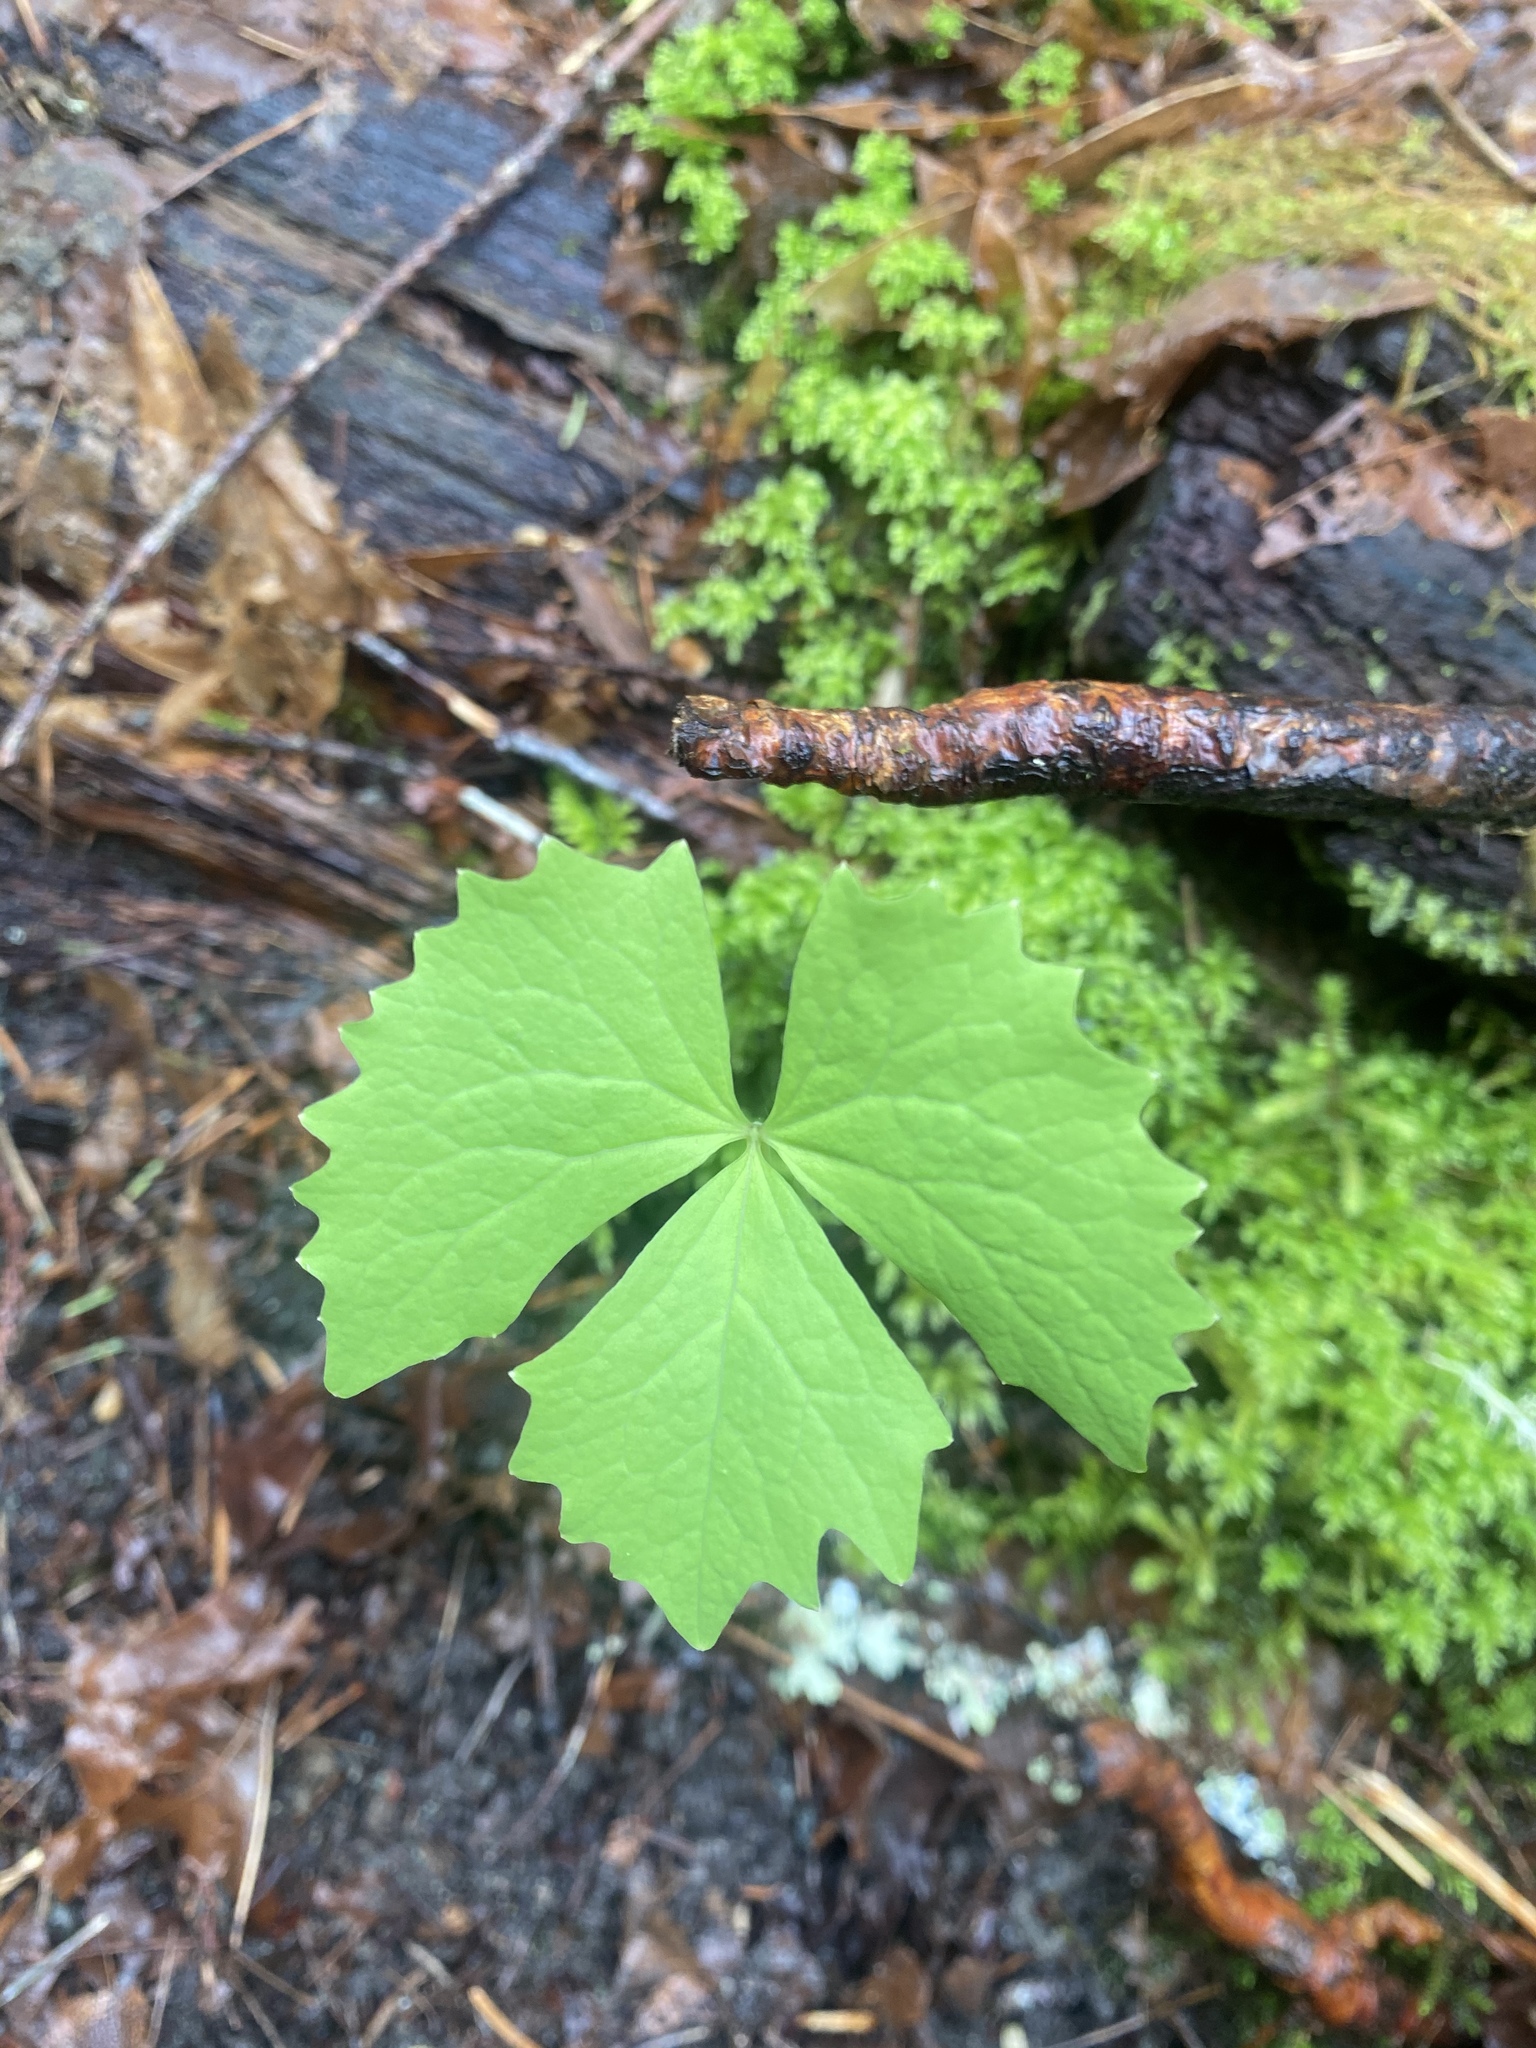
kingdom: Plantae
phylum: Tracheophyta
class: Magnoliopsida
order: Ranunculales
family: Berberidaceae
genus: Achlys
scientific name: Achlys triphylla
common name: Vanilla-leaf
